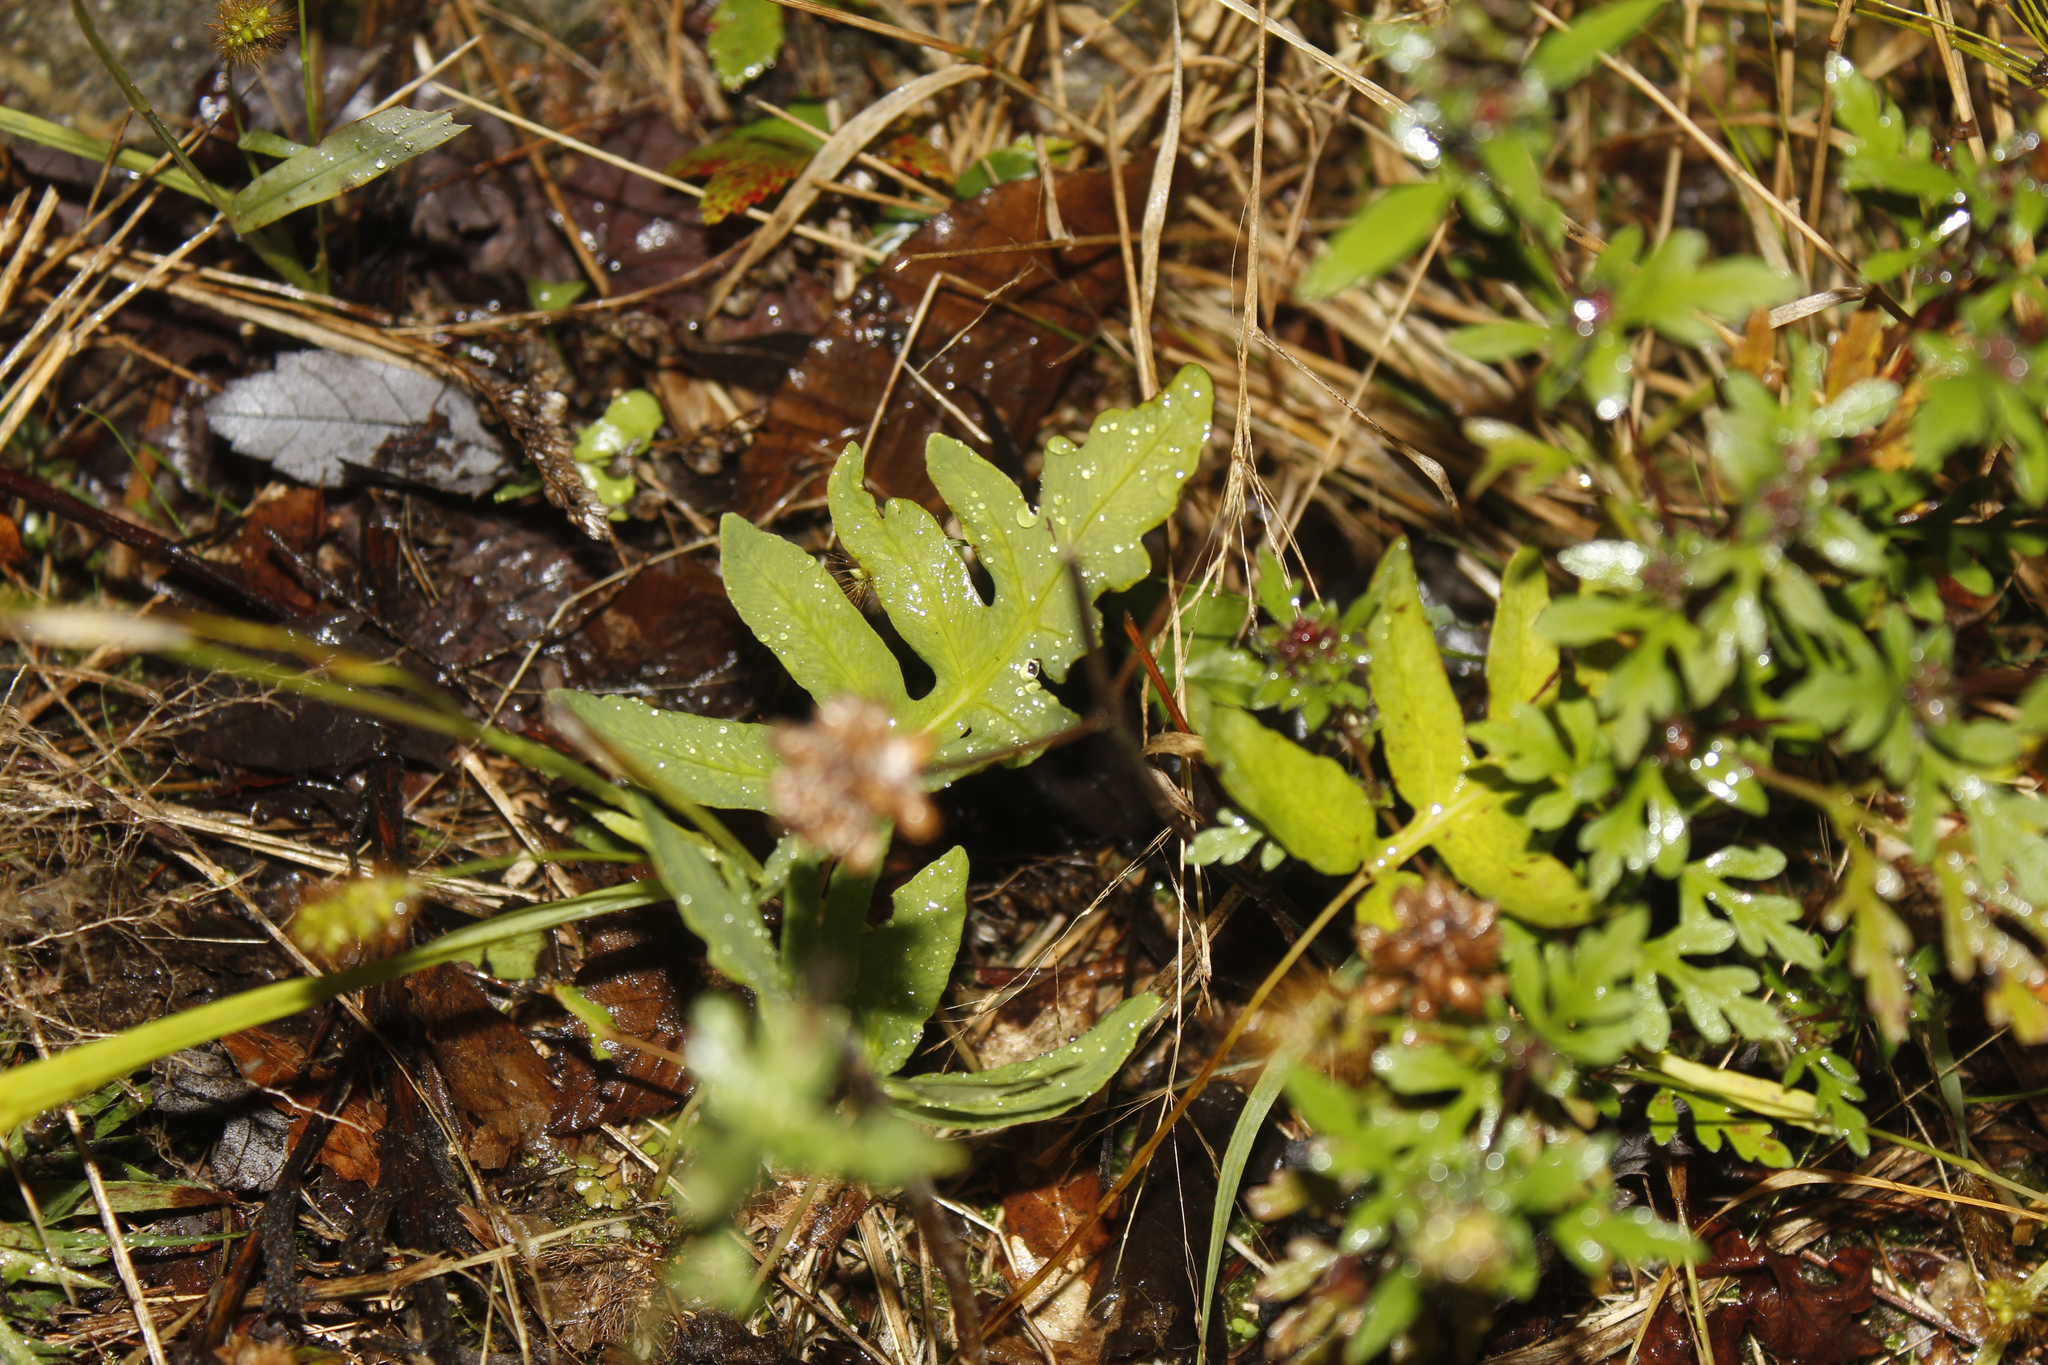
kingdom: Plantae
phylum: Tracheophyta
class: Polypodiopsida
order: Polypodiales
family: Onocleaceae
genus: Onoclea
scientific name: Onoclea sensibilis
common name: Sensitive fern
